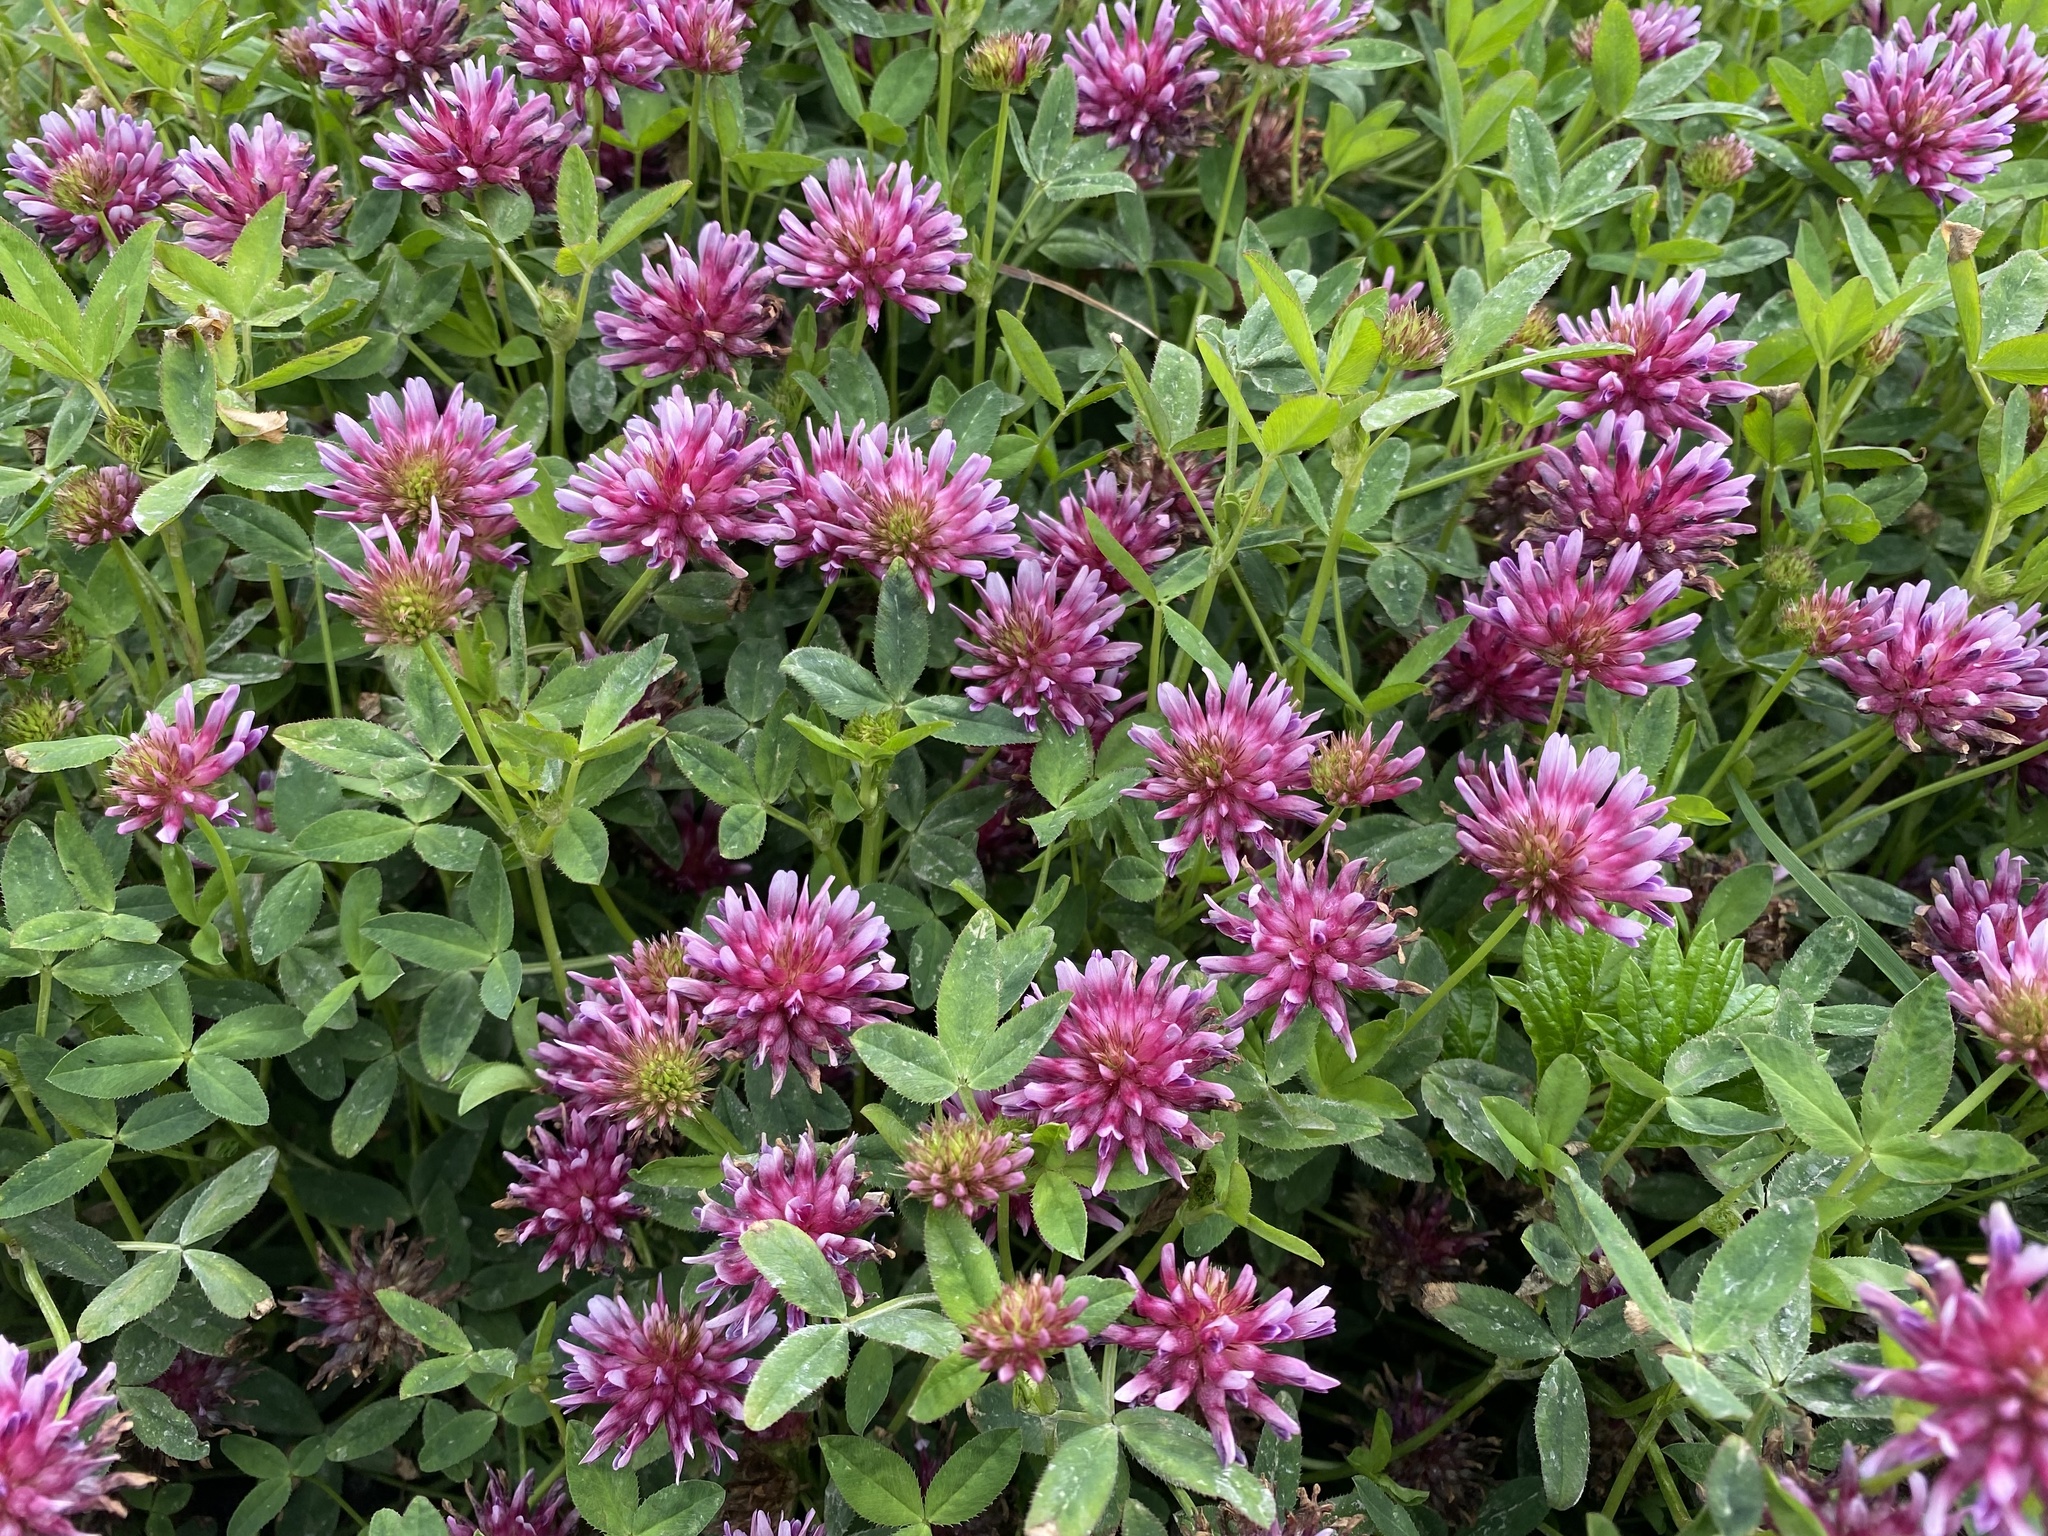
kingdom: Plantae
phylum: Tracheophyta
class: Magnoliopsida
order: Fabales
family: Fabaceae
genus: Trifolium
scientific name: Trifolium wormskioldii
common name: Springbank clover
